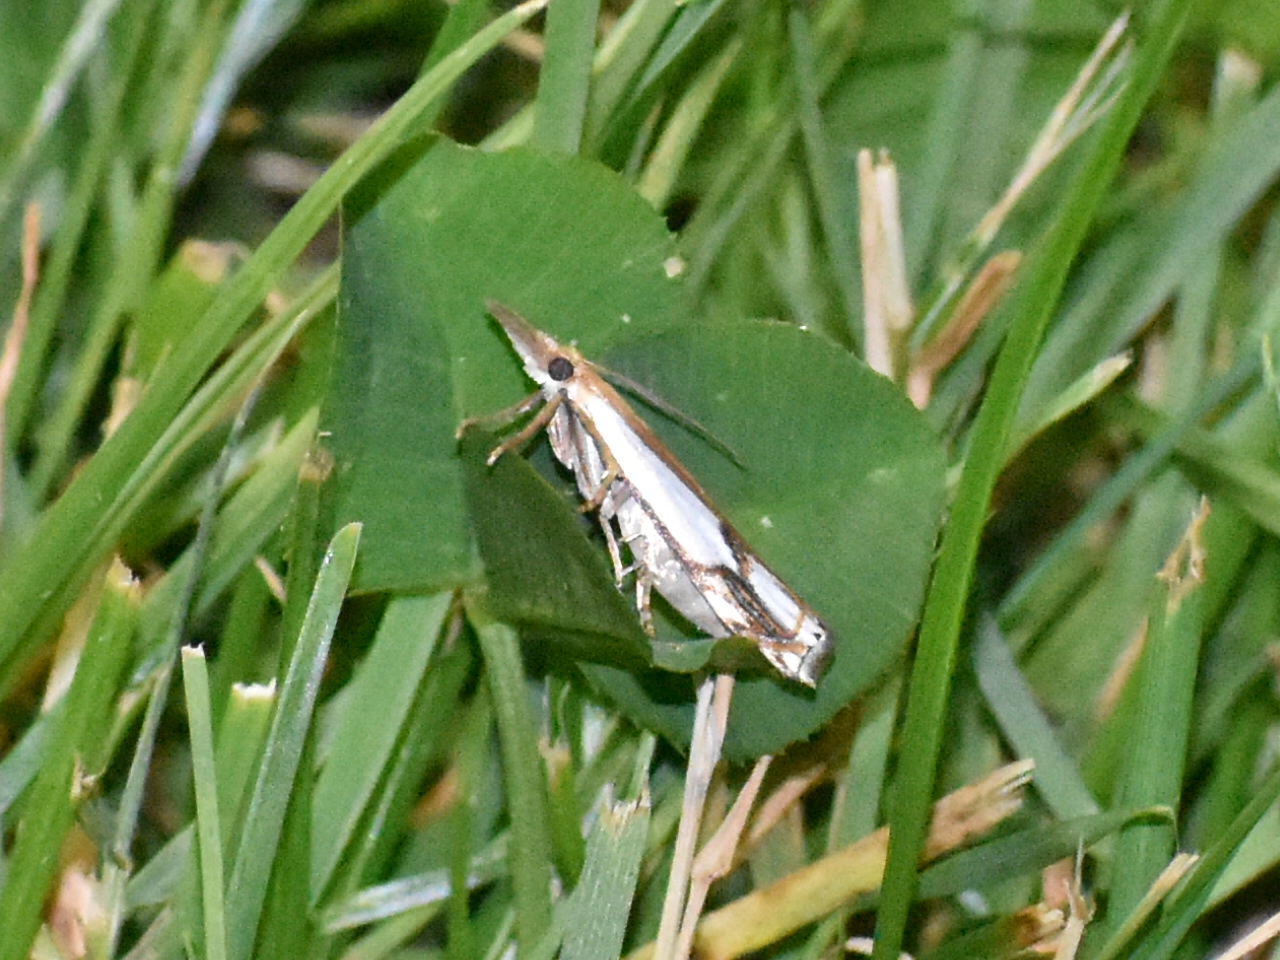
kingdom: Animalia
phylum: Arthropoda
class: Insecta
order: Lepidoptera
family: Crambidae
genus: Crambus
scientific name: Crambus agitatellus
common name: Double-banded grass-veneer
